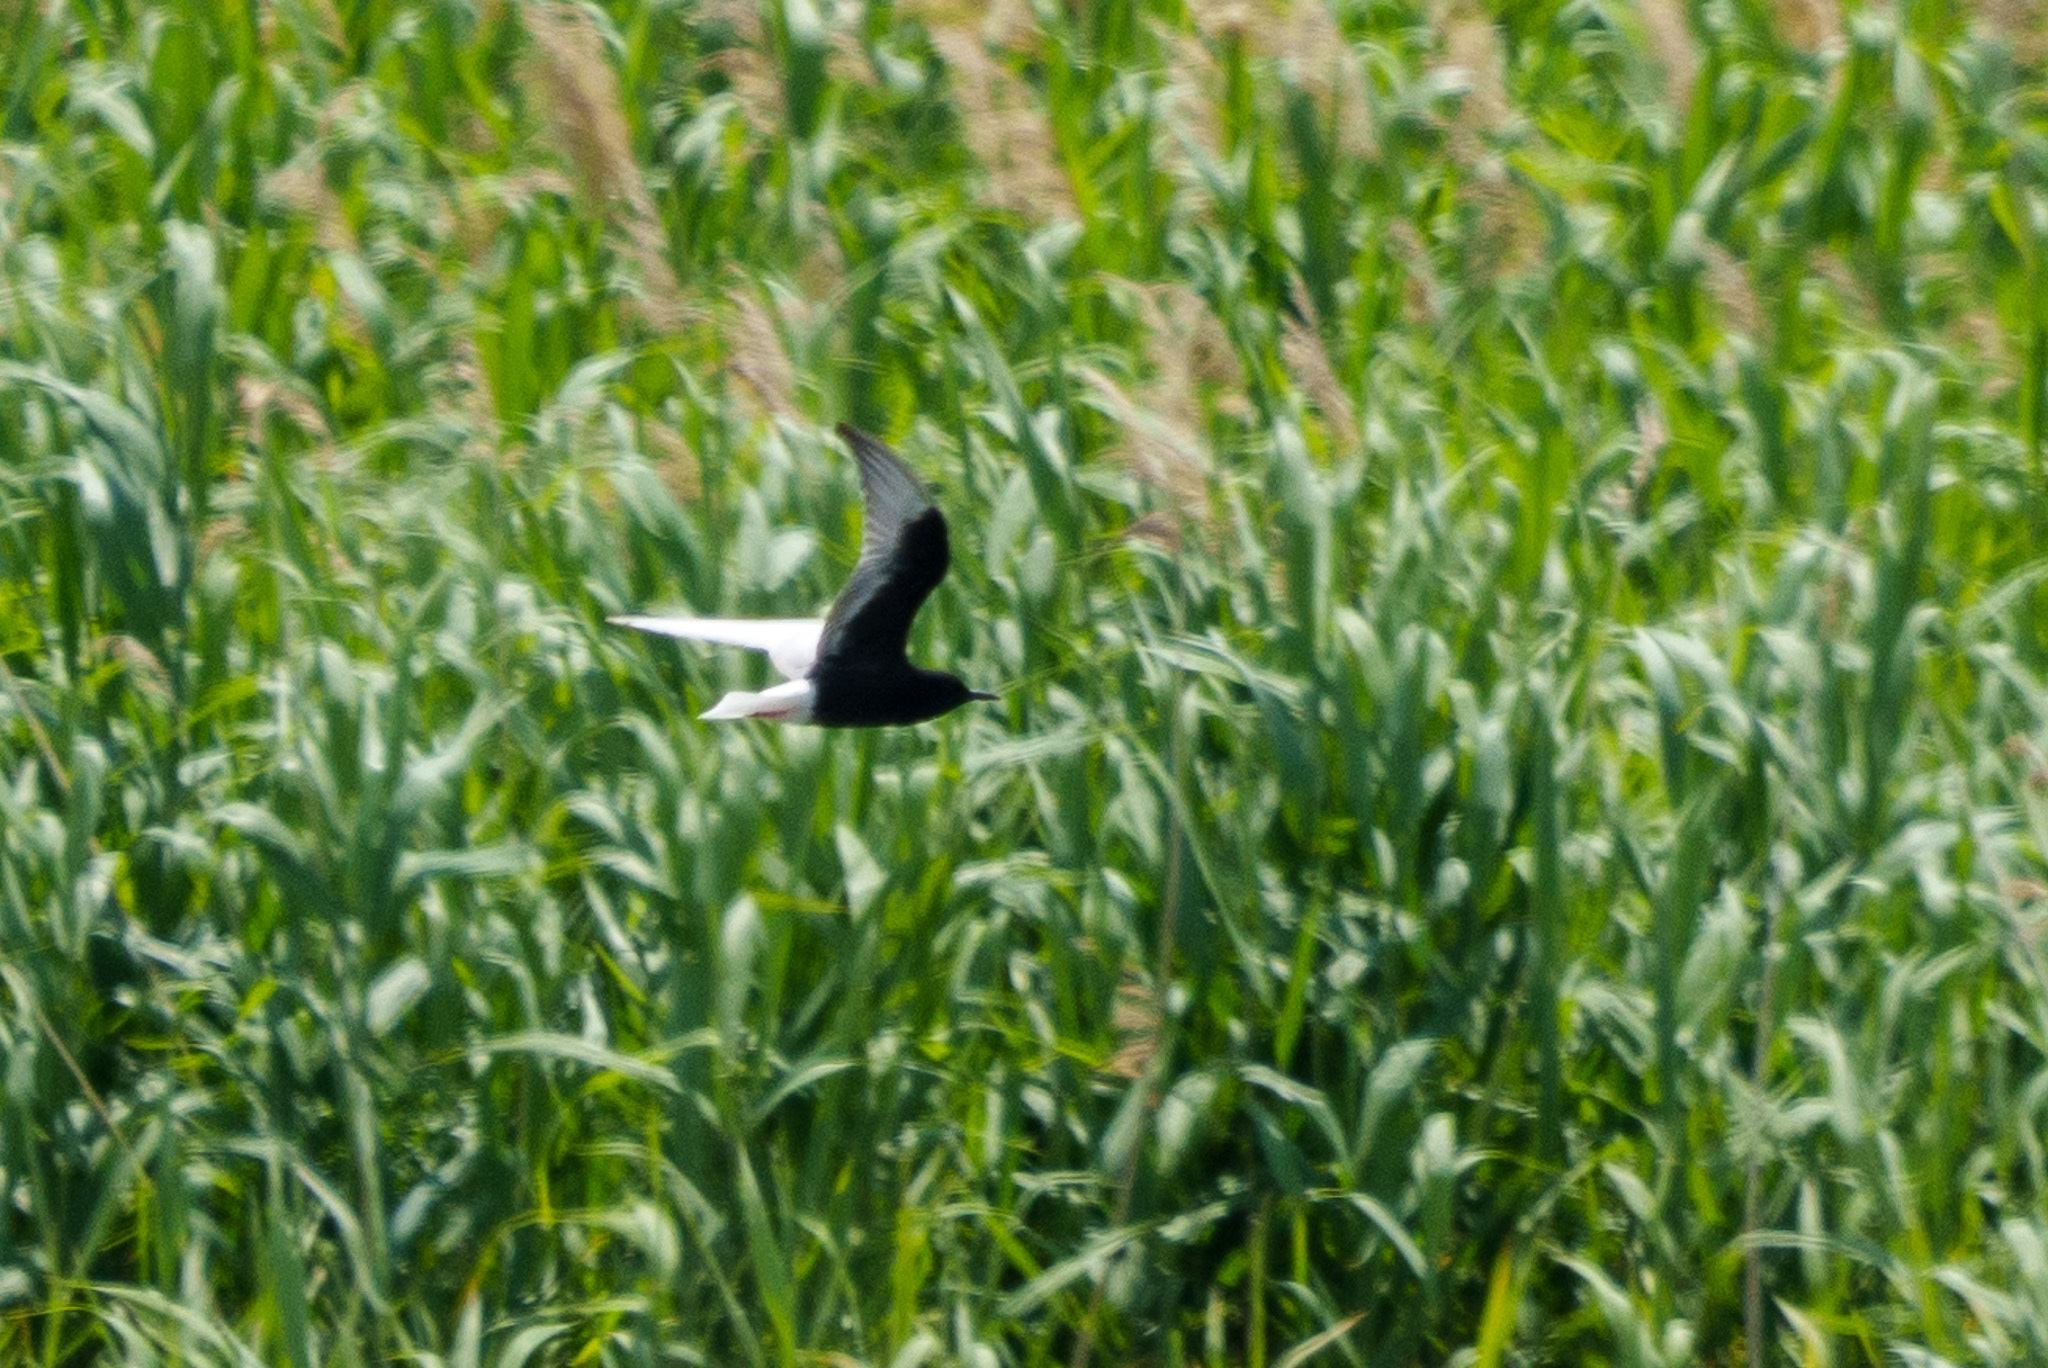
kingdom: Animalia
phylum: Chordata
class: Aves
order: Charadriiformes
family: Laridae
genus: Chlidonias
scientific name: Chlidonias leucopterus
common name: White-winged tern
